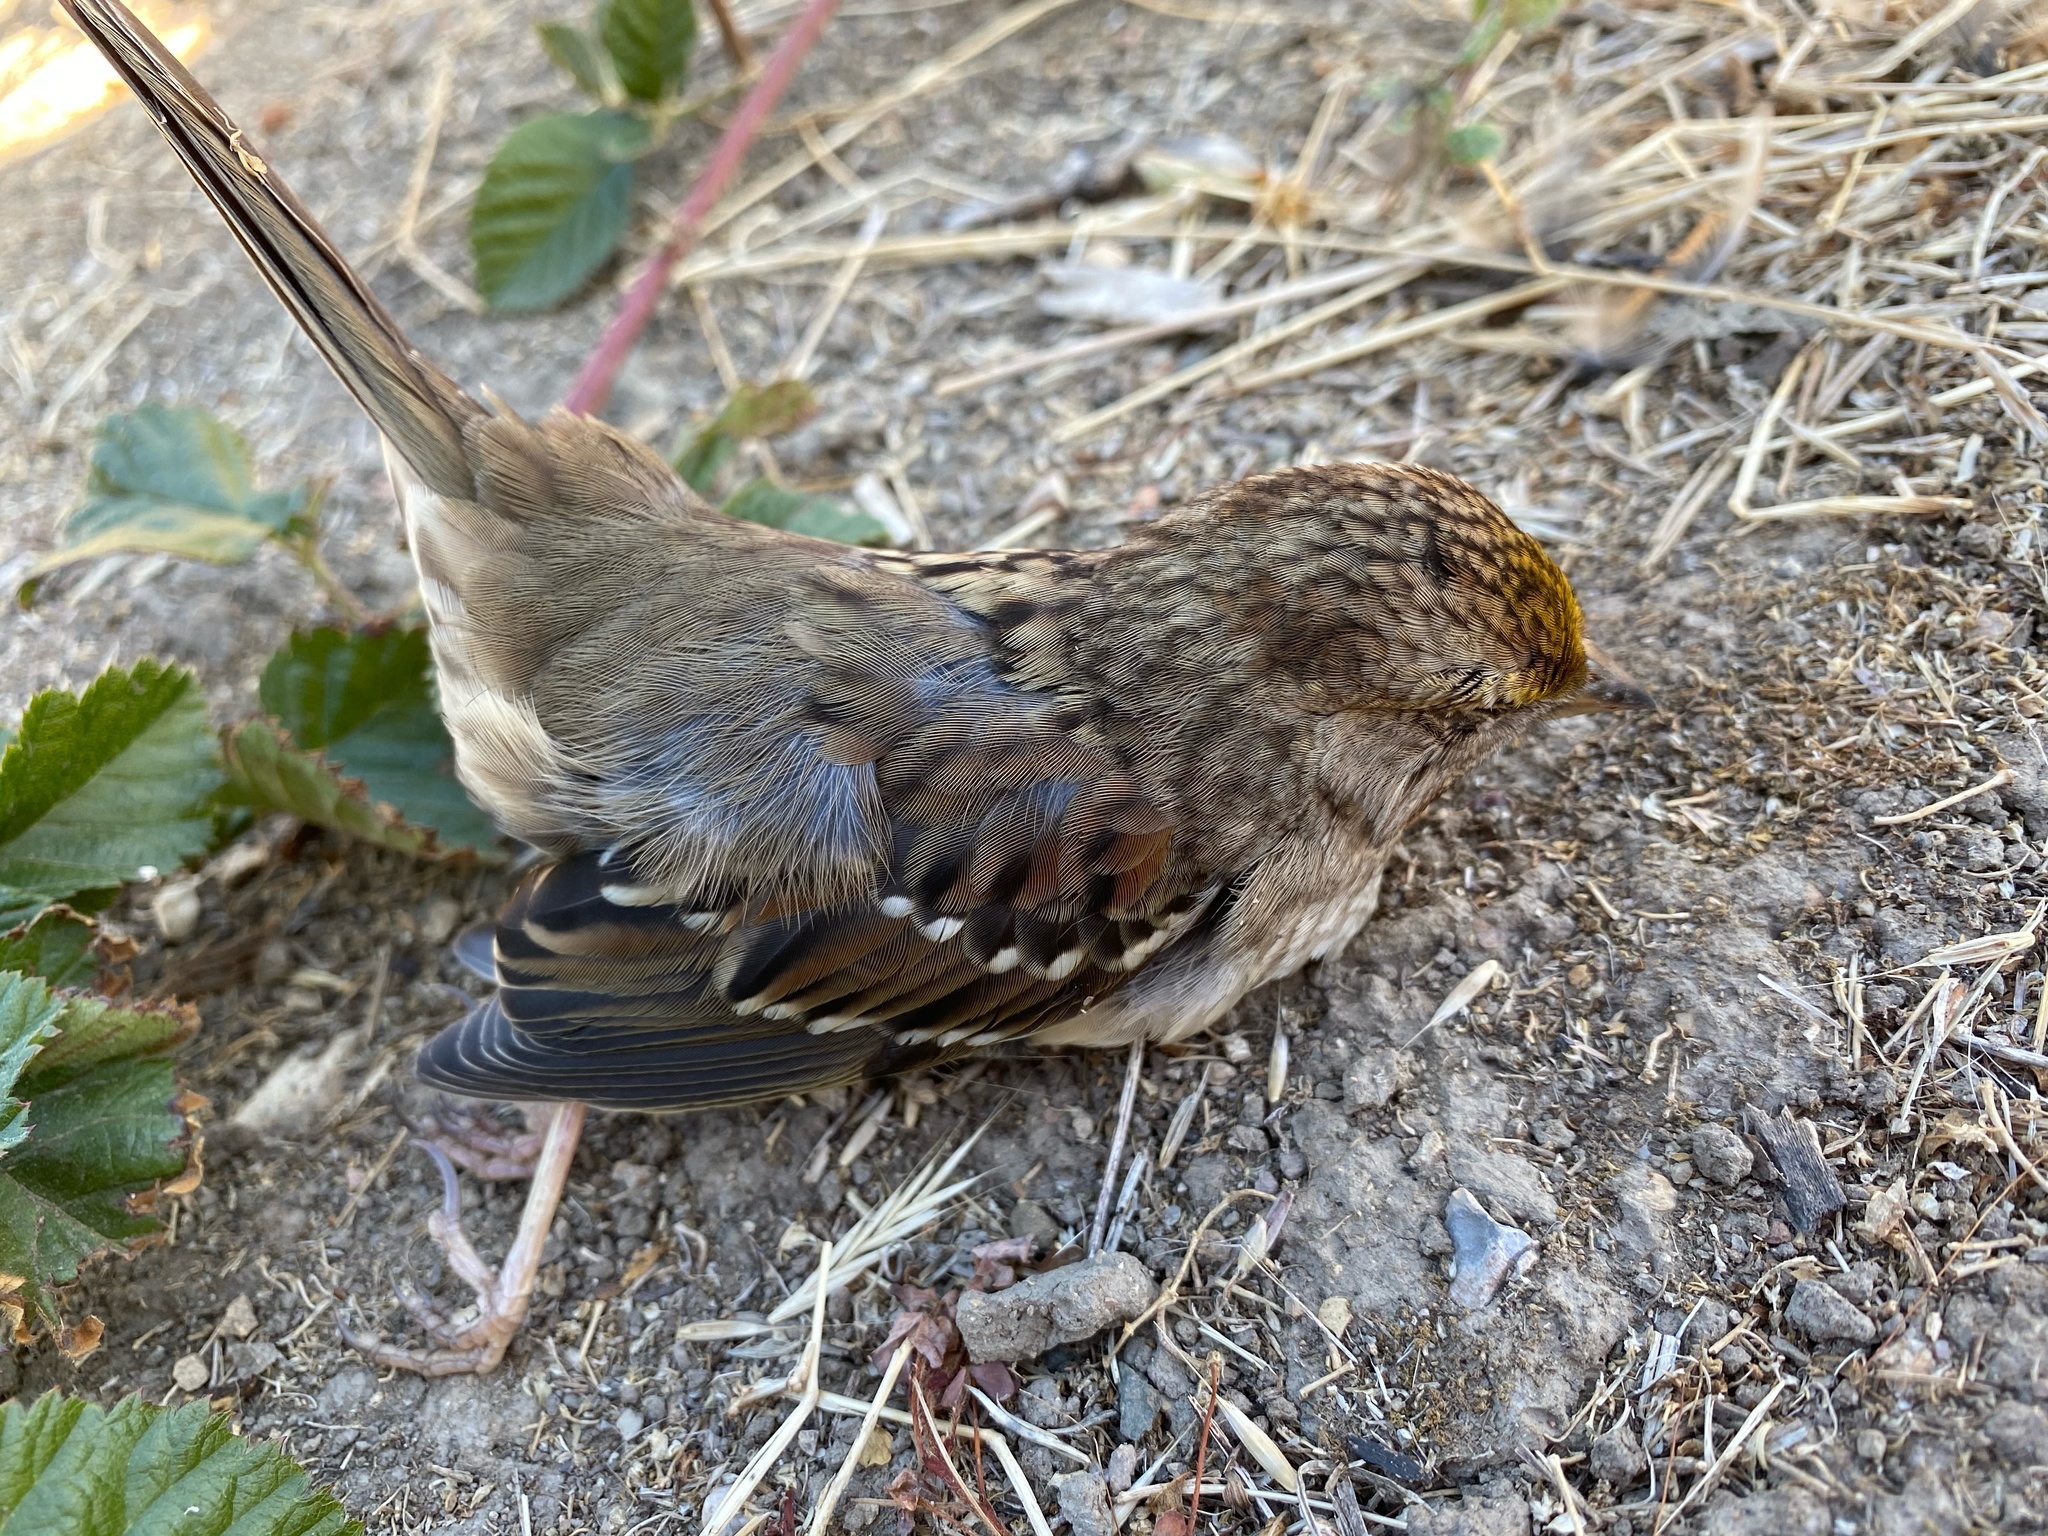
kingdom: Animalia
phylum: Chordata
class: Aves
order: Passeriformes
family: Passerellidae
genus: Zonotrichia
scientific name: Zonotrichia atricapilla
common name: Golden-crowned sparrow
